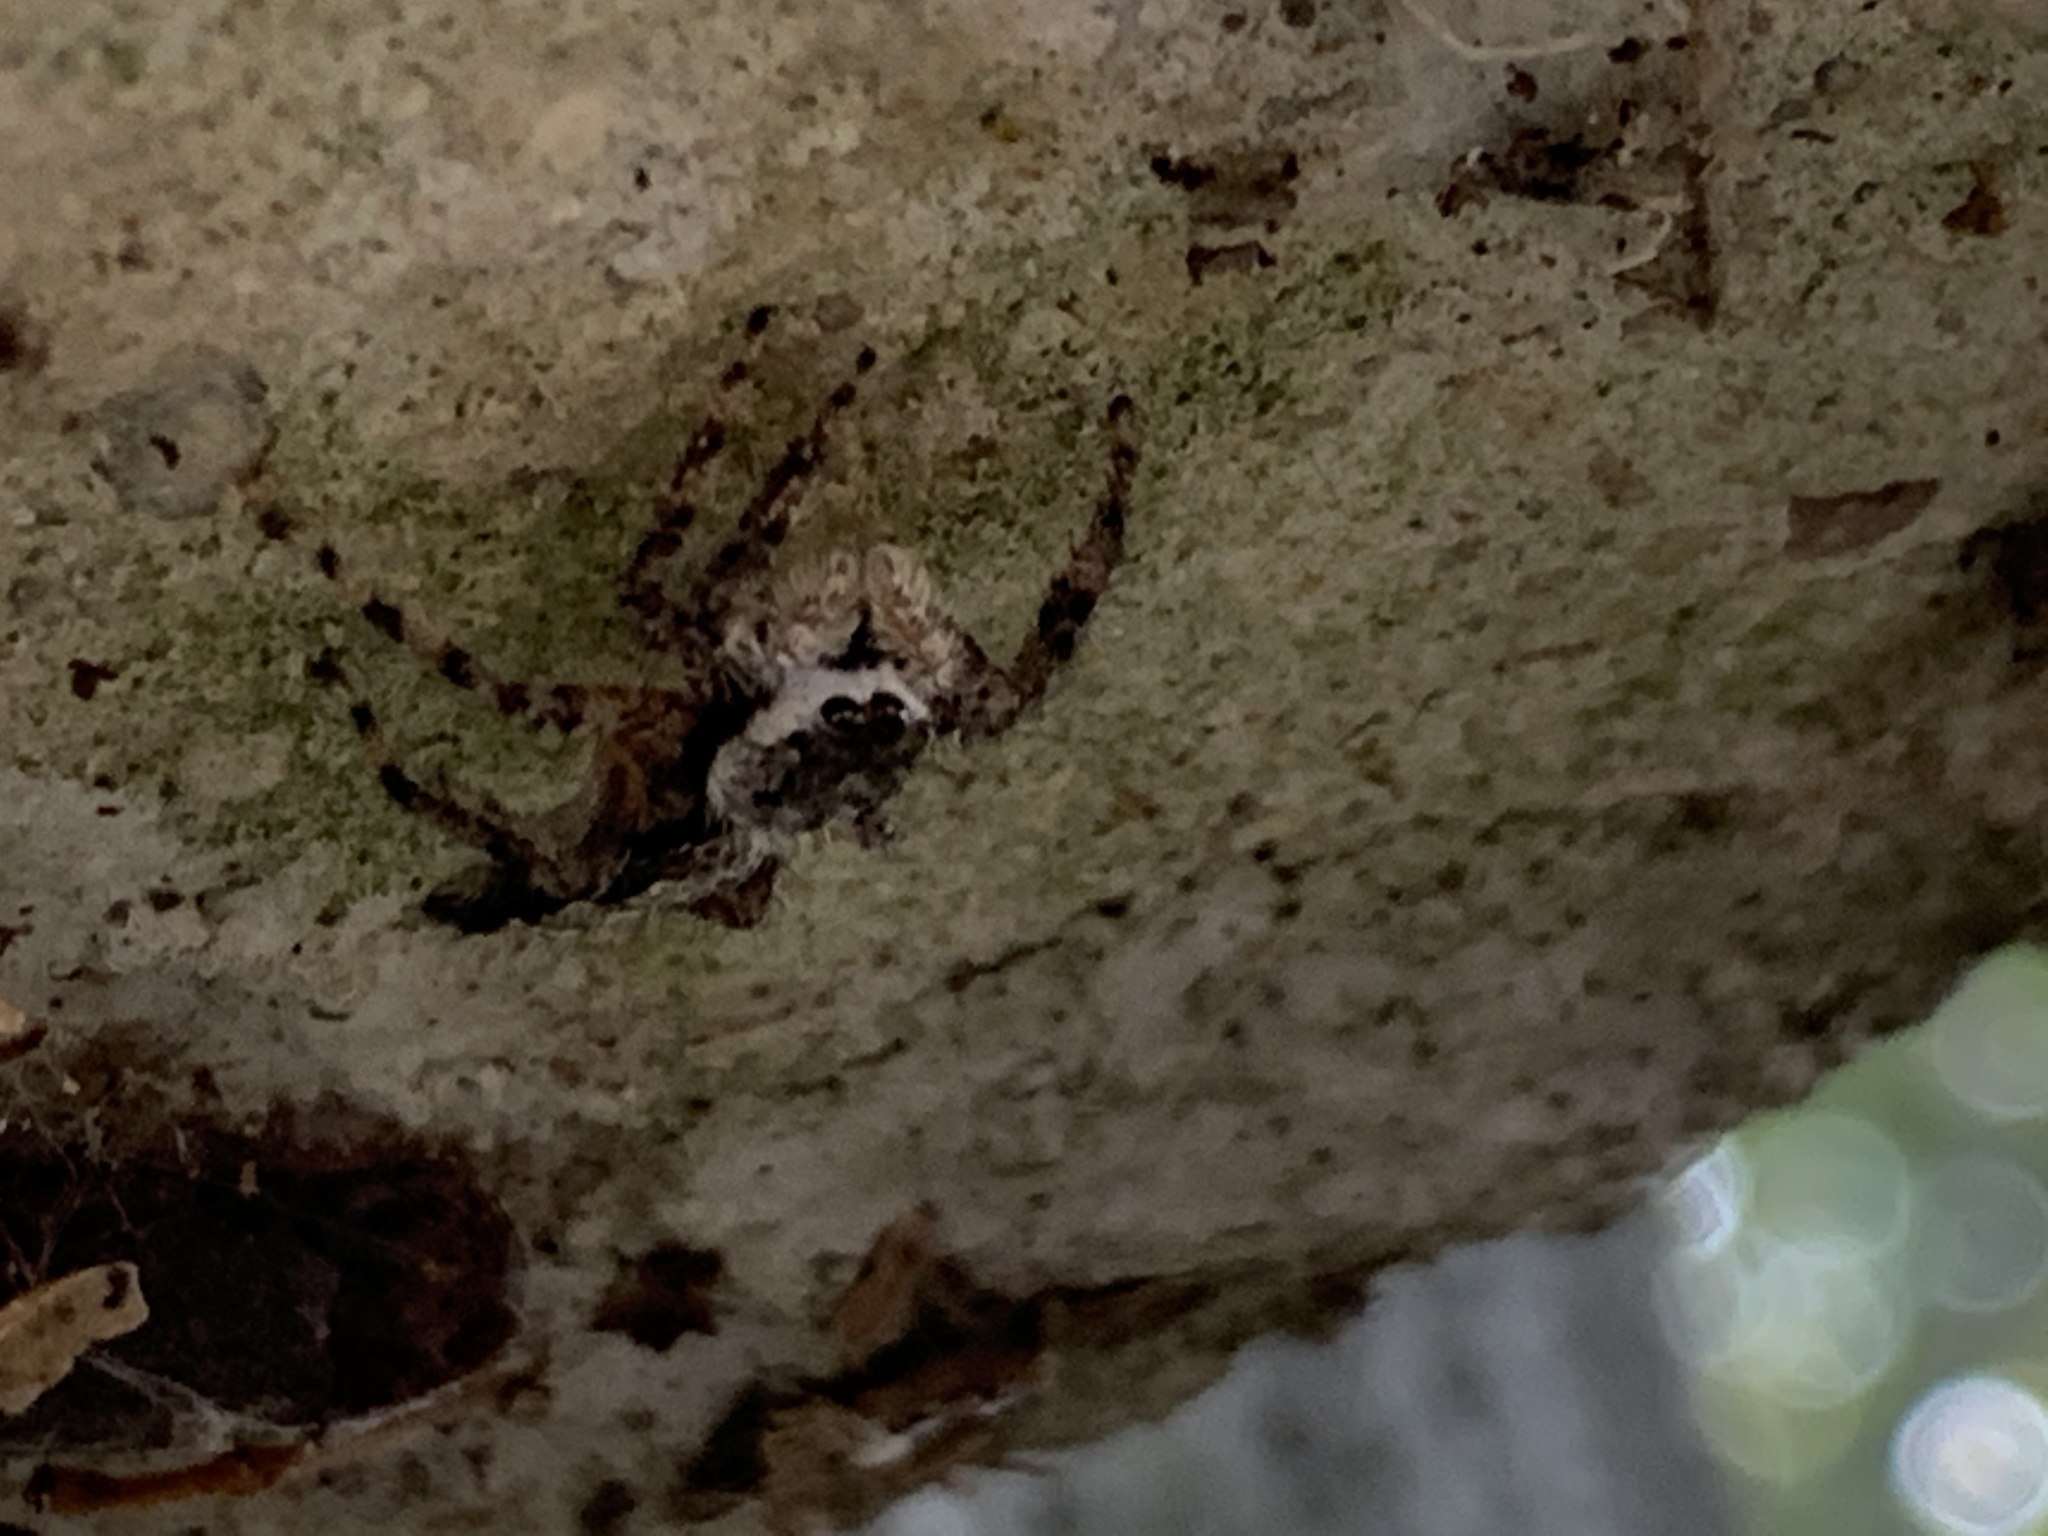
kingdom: Animalia
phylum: Arthropoda
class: Arachnida
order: Araneae
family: Salticidae
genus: Platycryptus
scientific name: Platycryptus undatus
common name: Tan jumping spider
